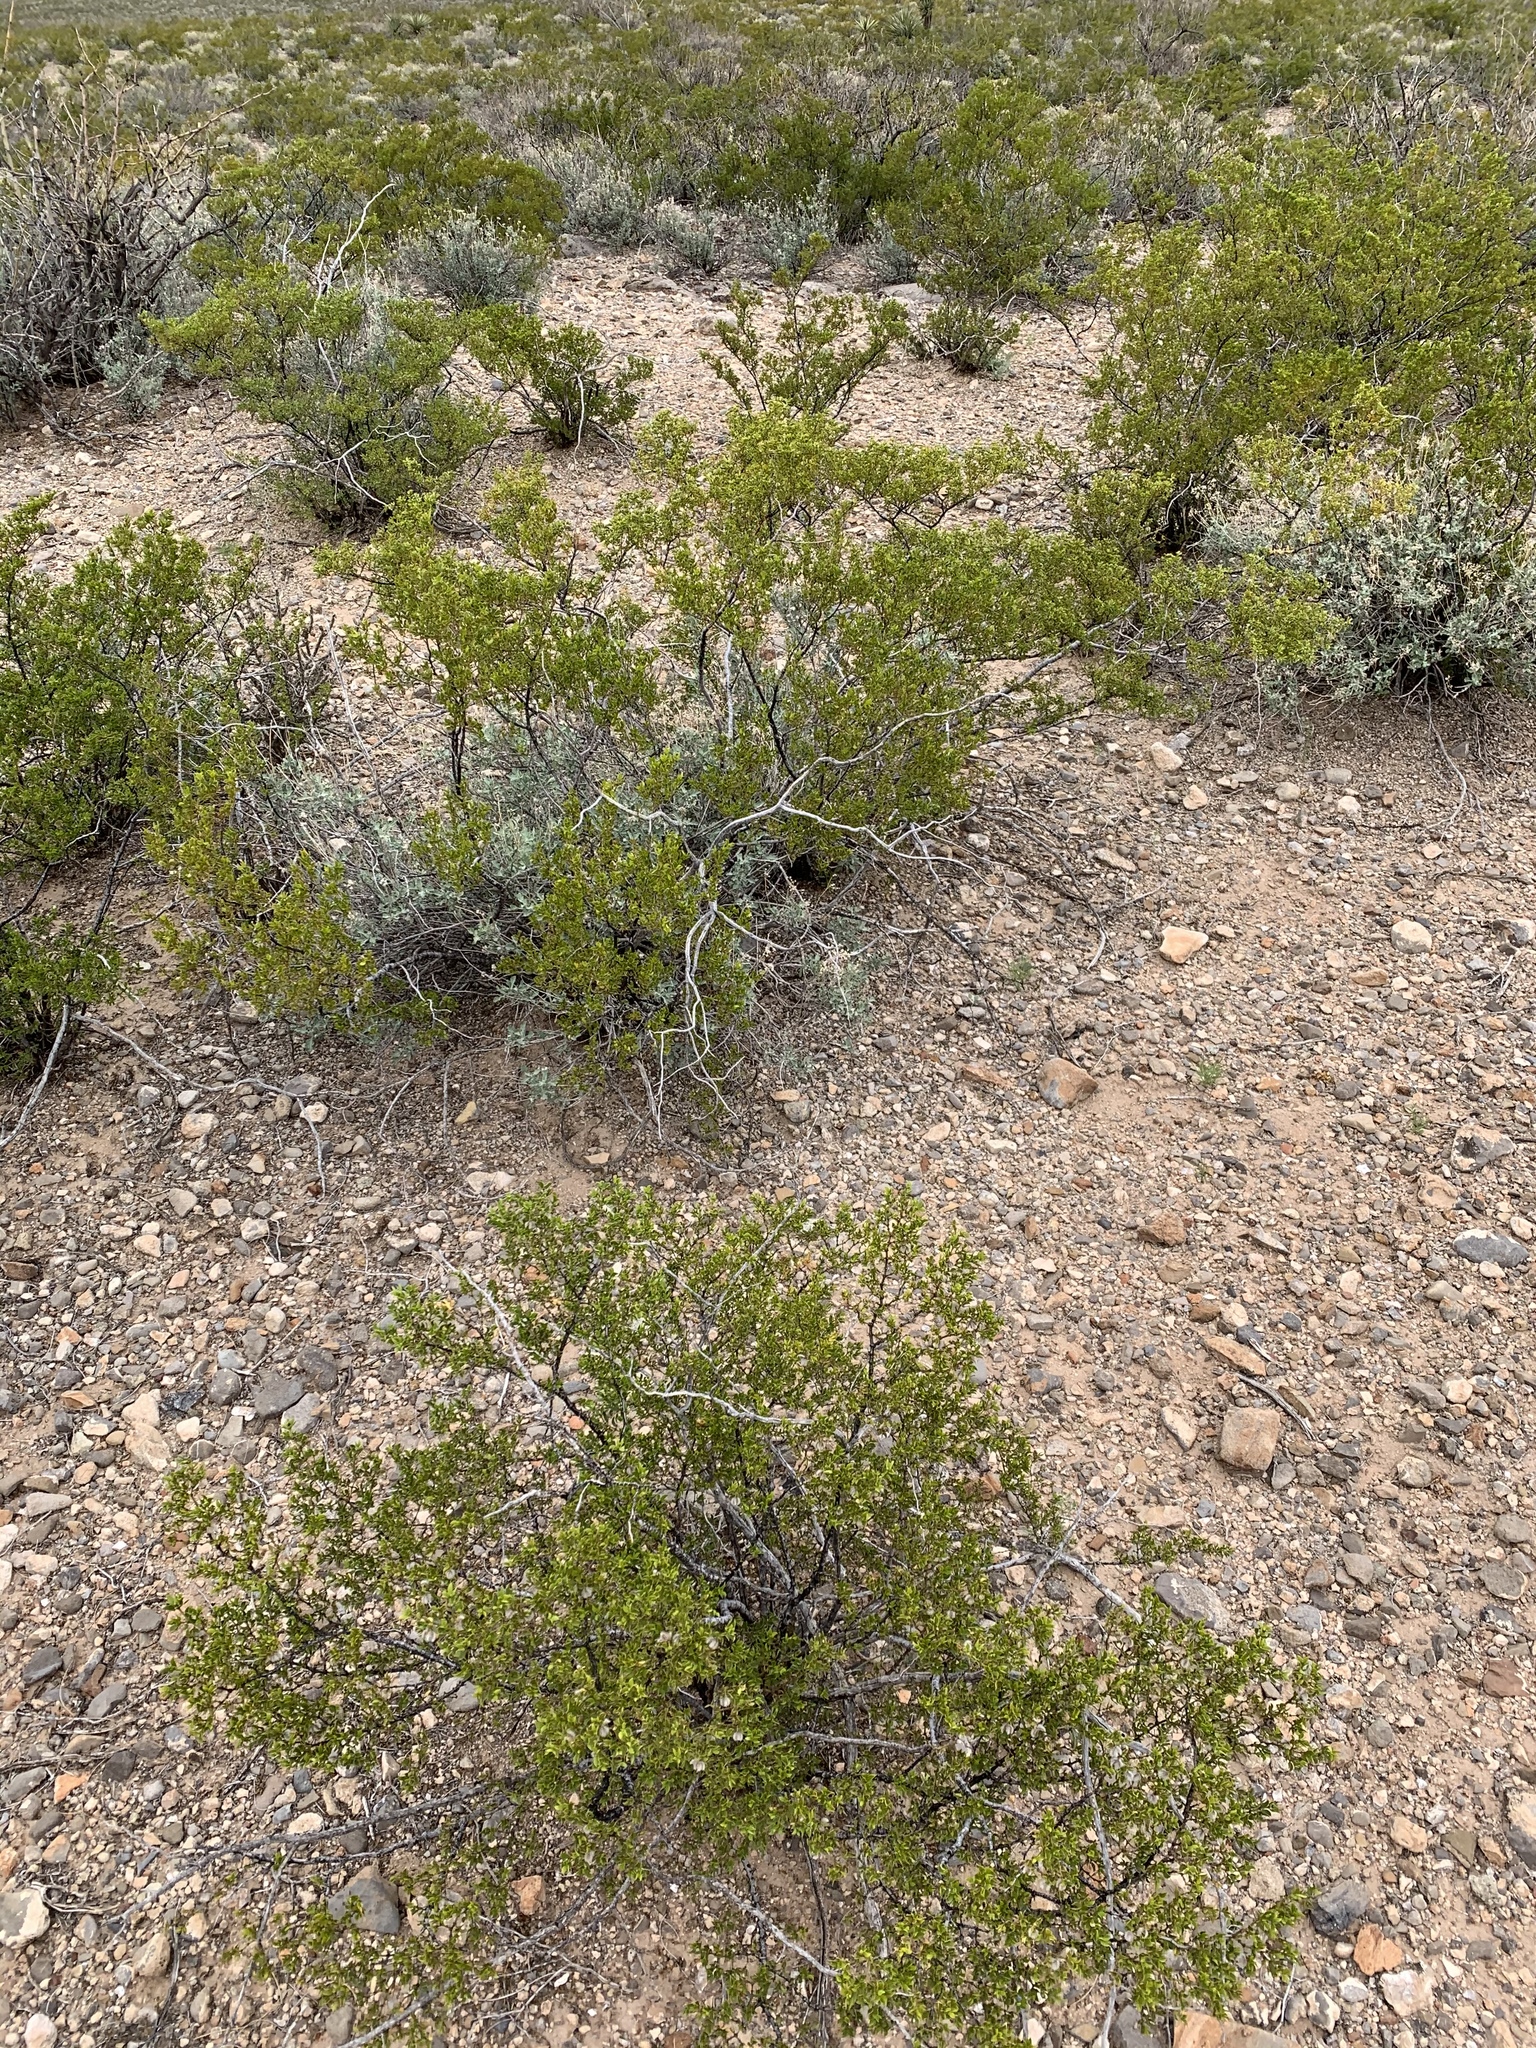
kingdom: Plantae
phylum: Tracheophyta
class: Magnoliopsida
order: Zygophyllales
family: Zygophyllaceae
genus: Larrea
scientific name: Larrea tridentata
